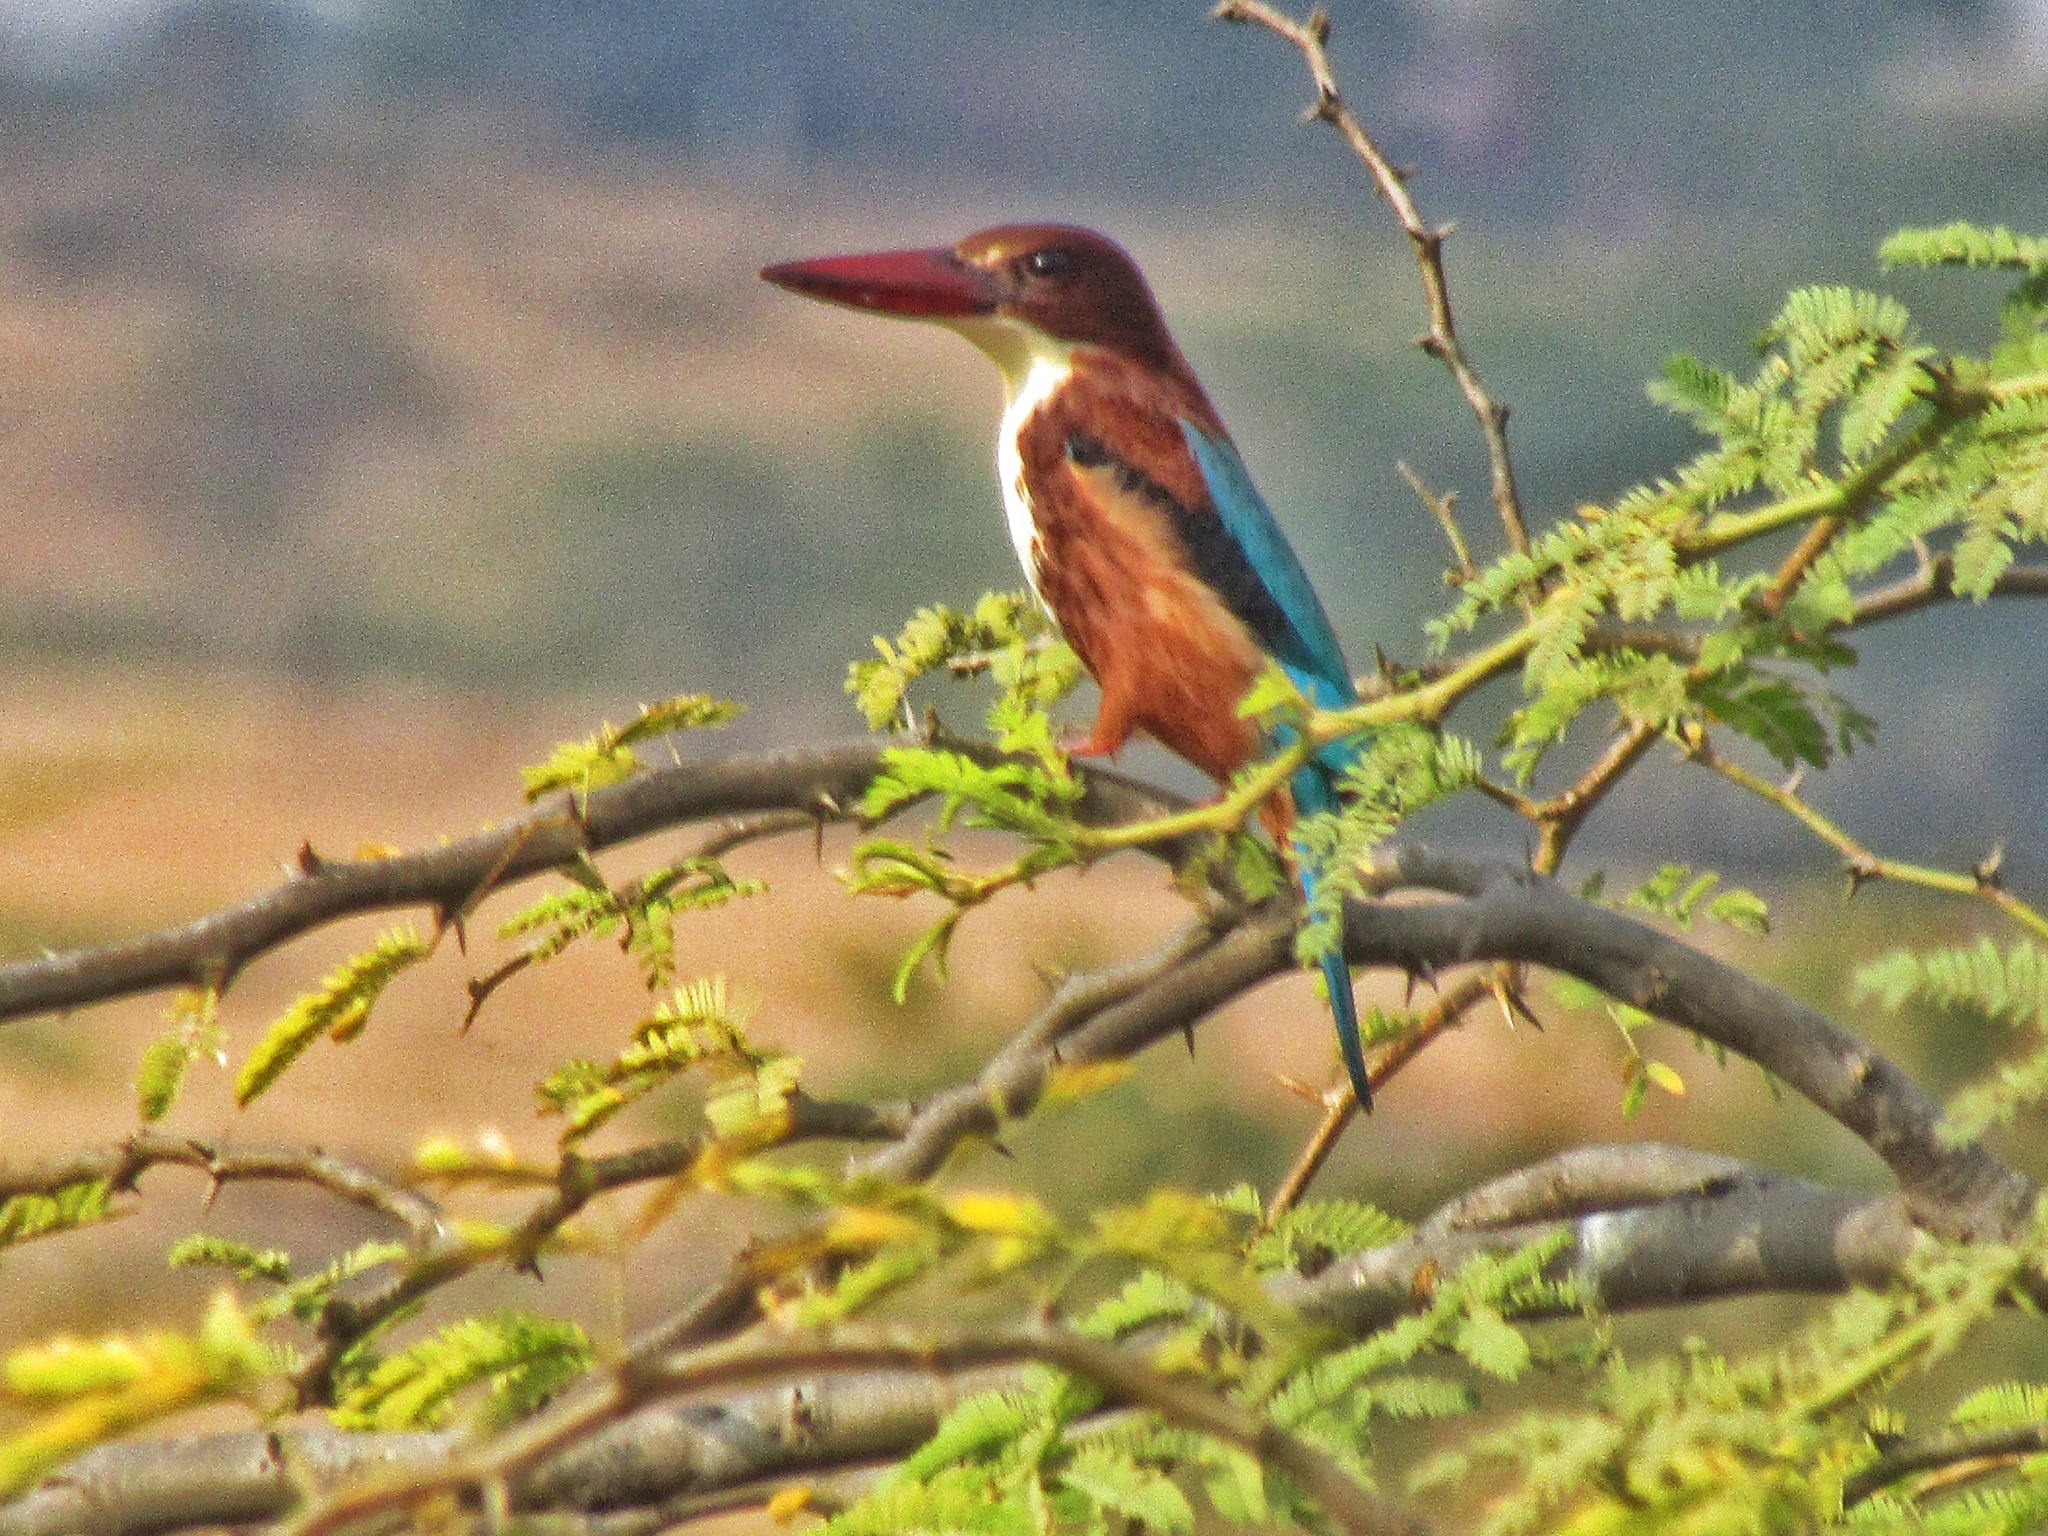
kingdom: Animalia
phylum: Chordata
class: Aves
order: Coraciiformes
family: Alcedinidae
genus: Halcyon
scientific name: Halcyon smyrnensis
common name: White-throated kingfisher
